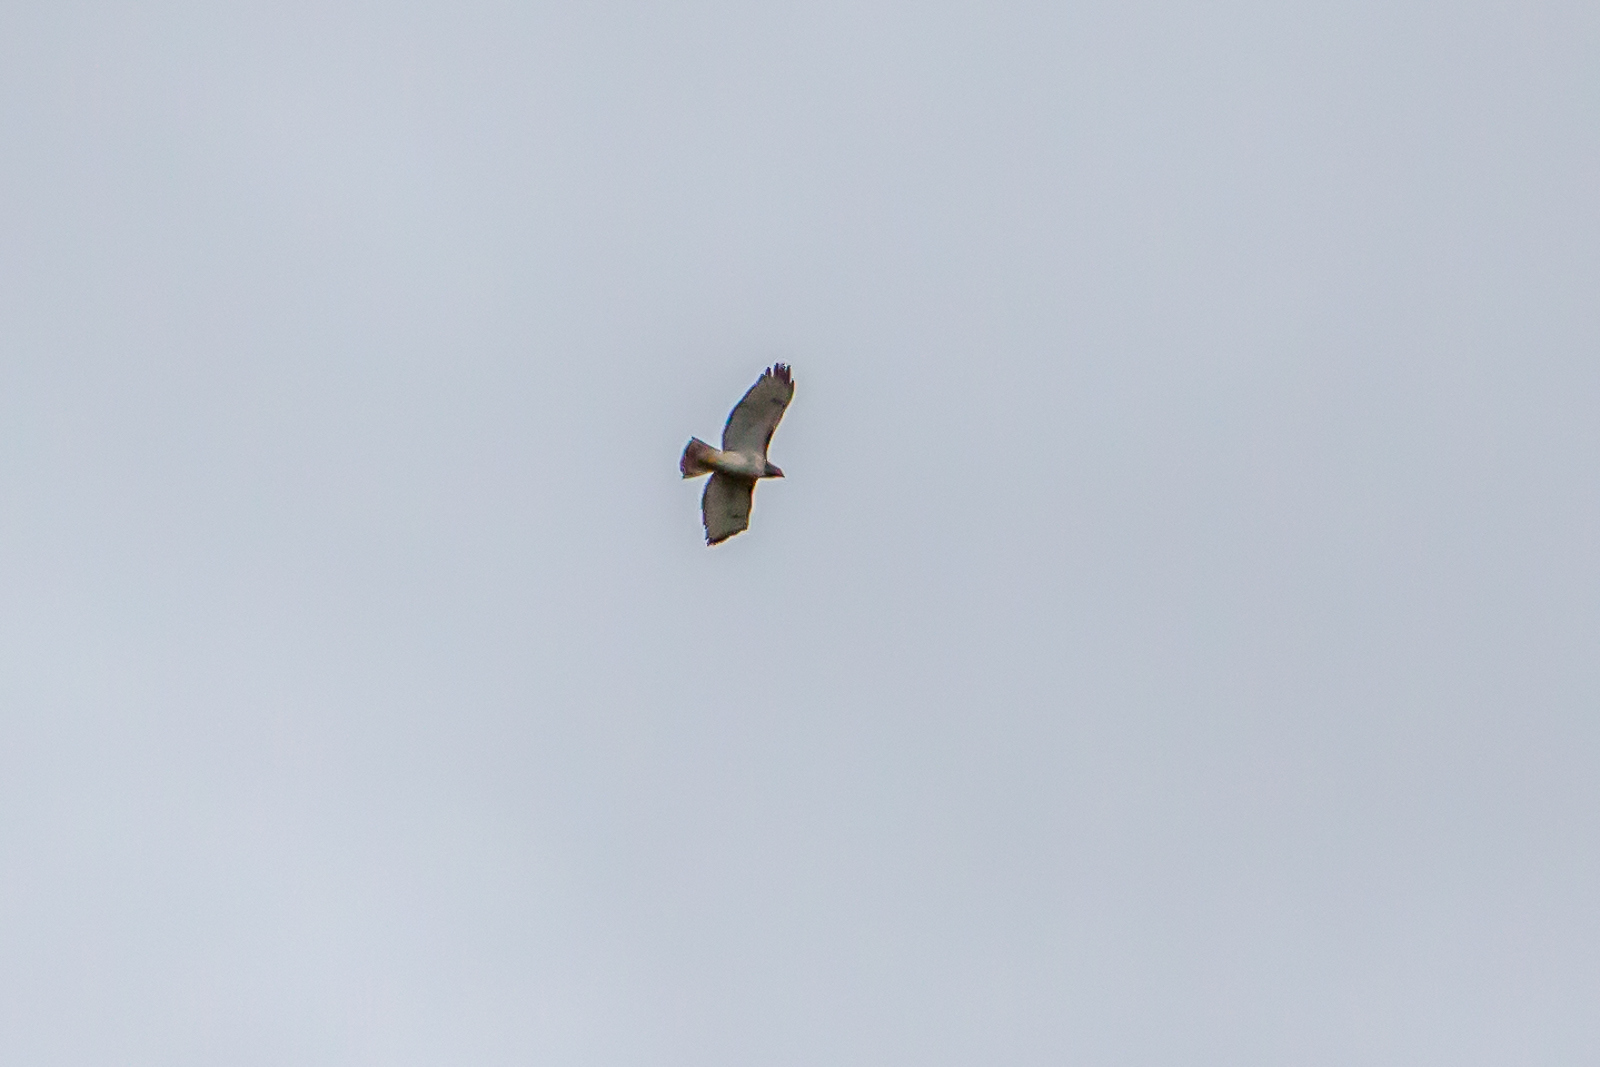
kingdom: Animalia
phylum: Chordata
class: Aves
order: Accipitriformes
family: Accipitridae
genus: Buteo
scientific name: Buteo jamaicensis
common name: Red-tailed hawk
